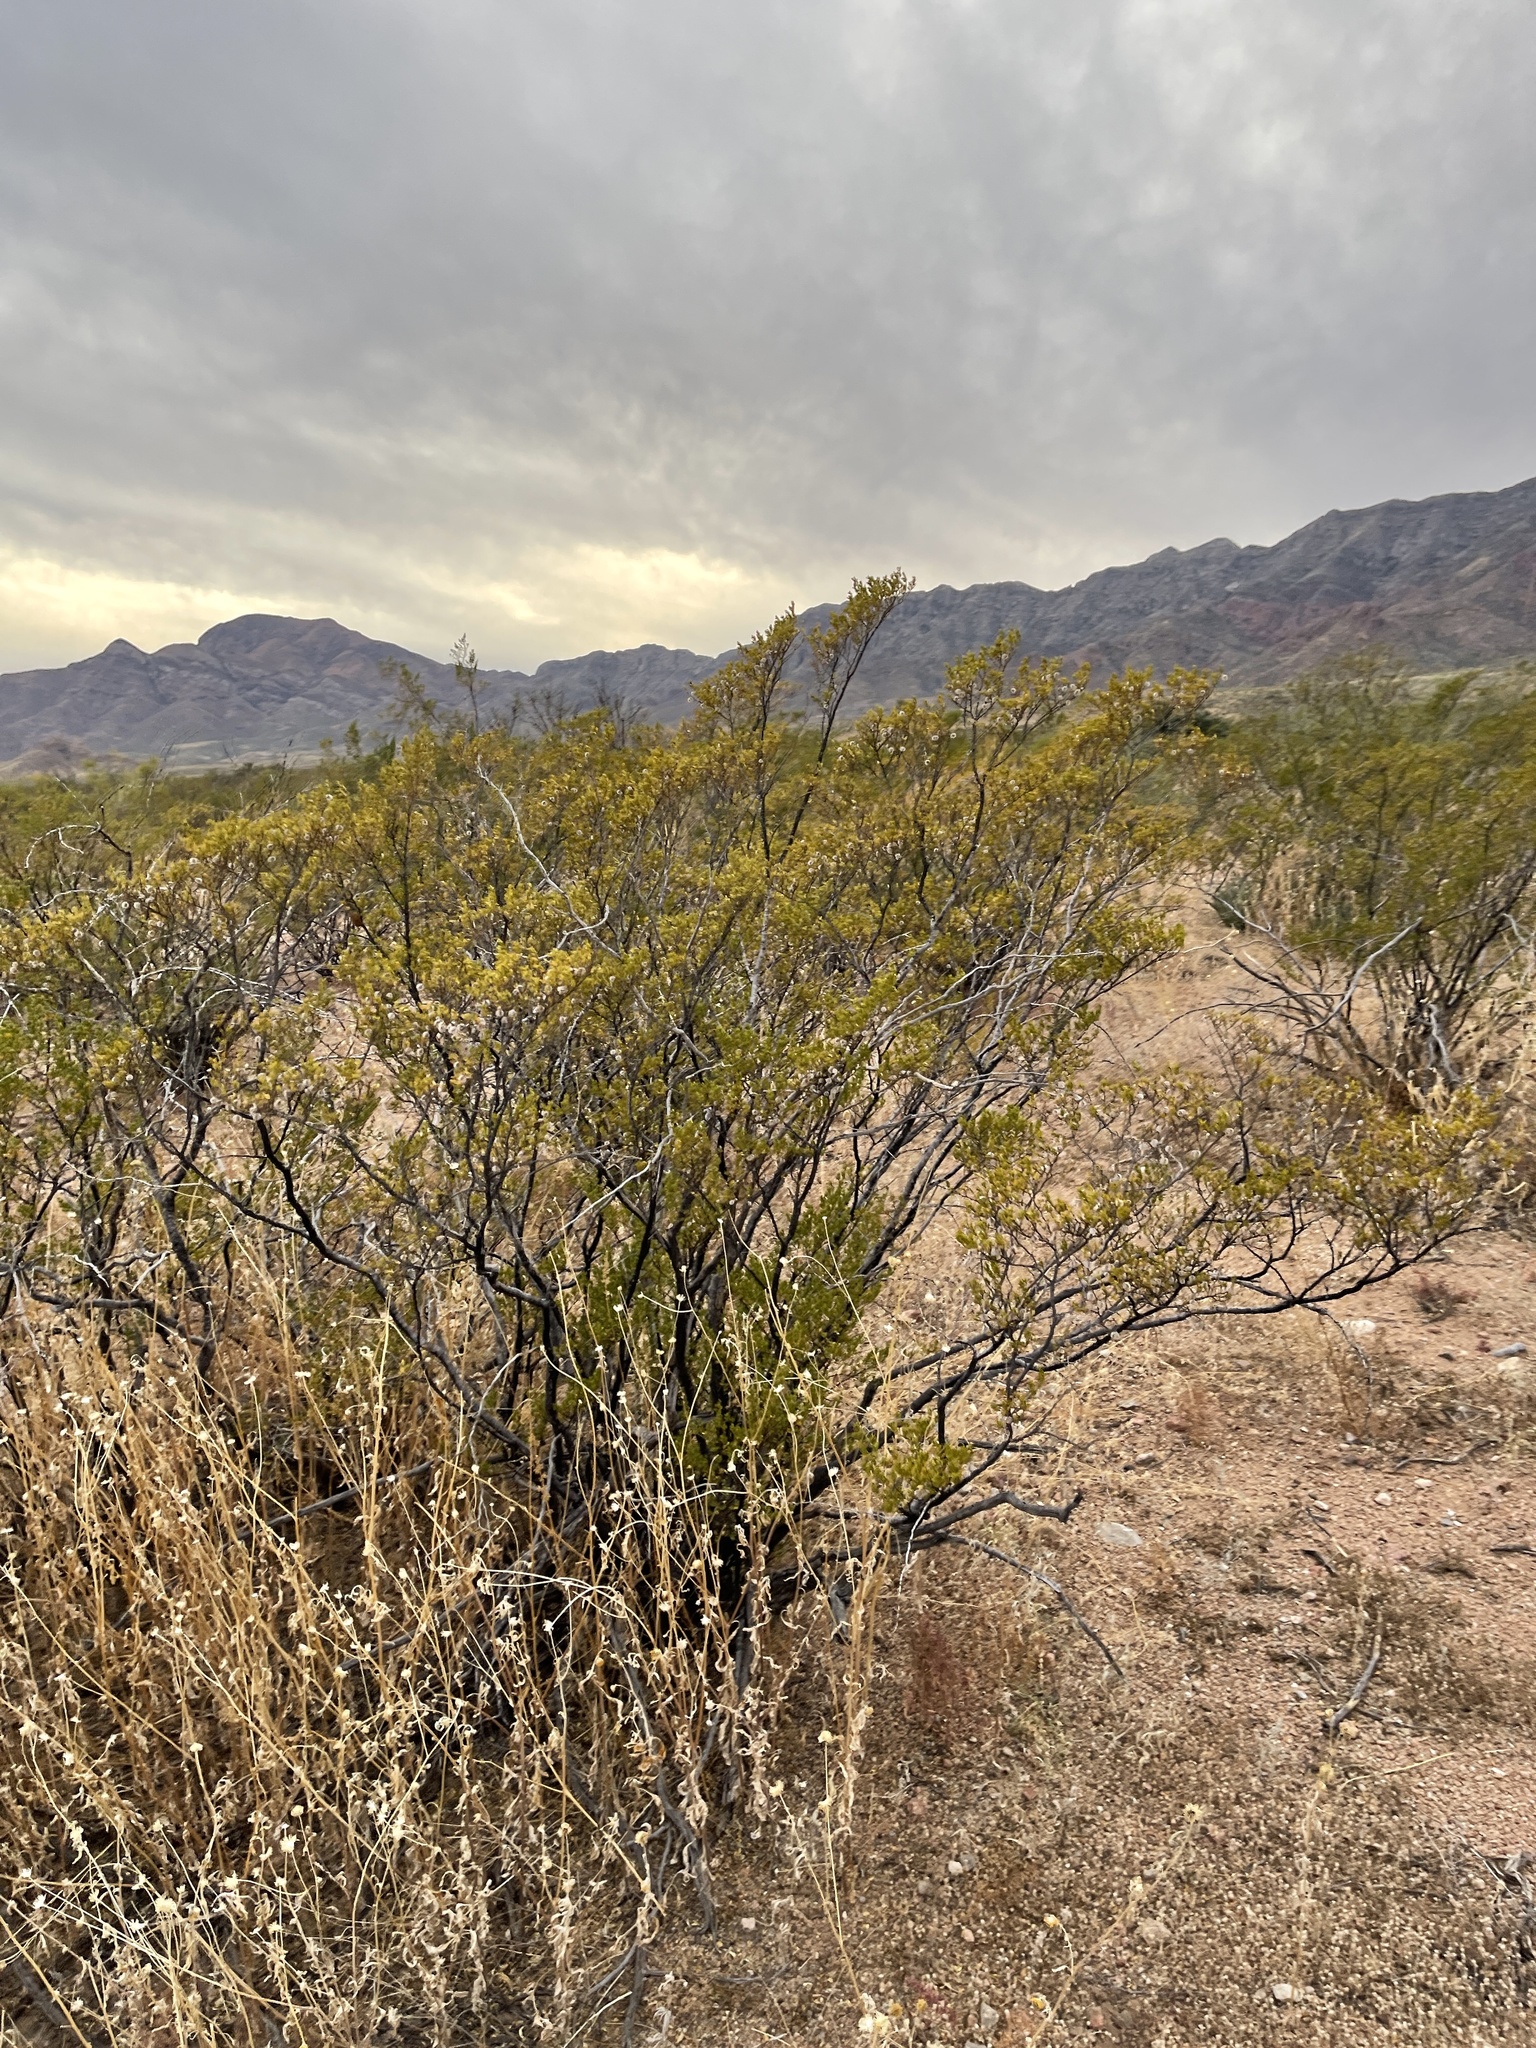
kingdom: Plantae
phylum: Tracheophyta
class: Magnoliopsida
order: Zygophyllales
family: Zygophyllaceae
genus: Larrea
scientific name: Larrea tridentata
